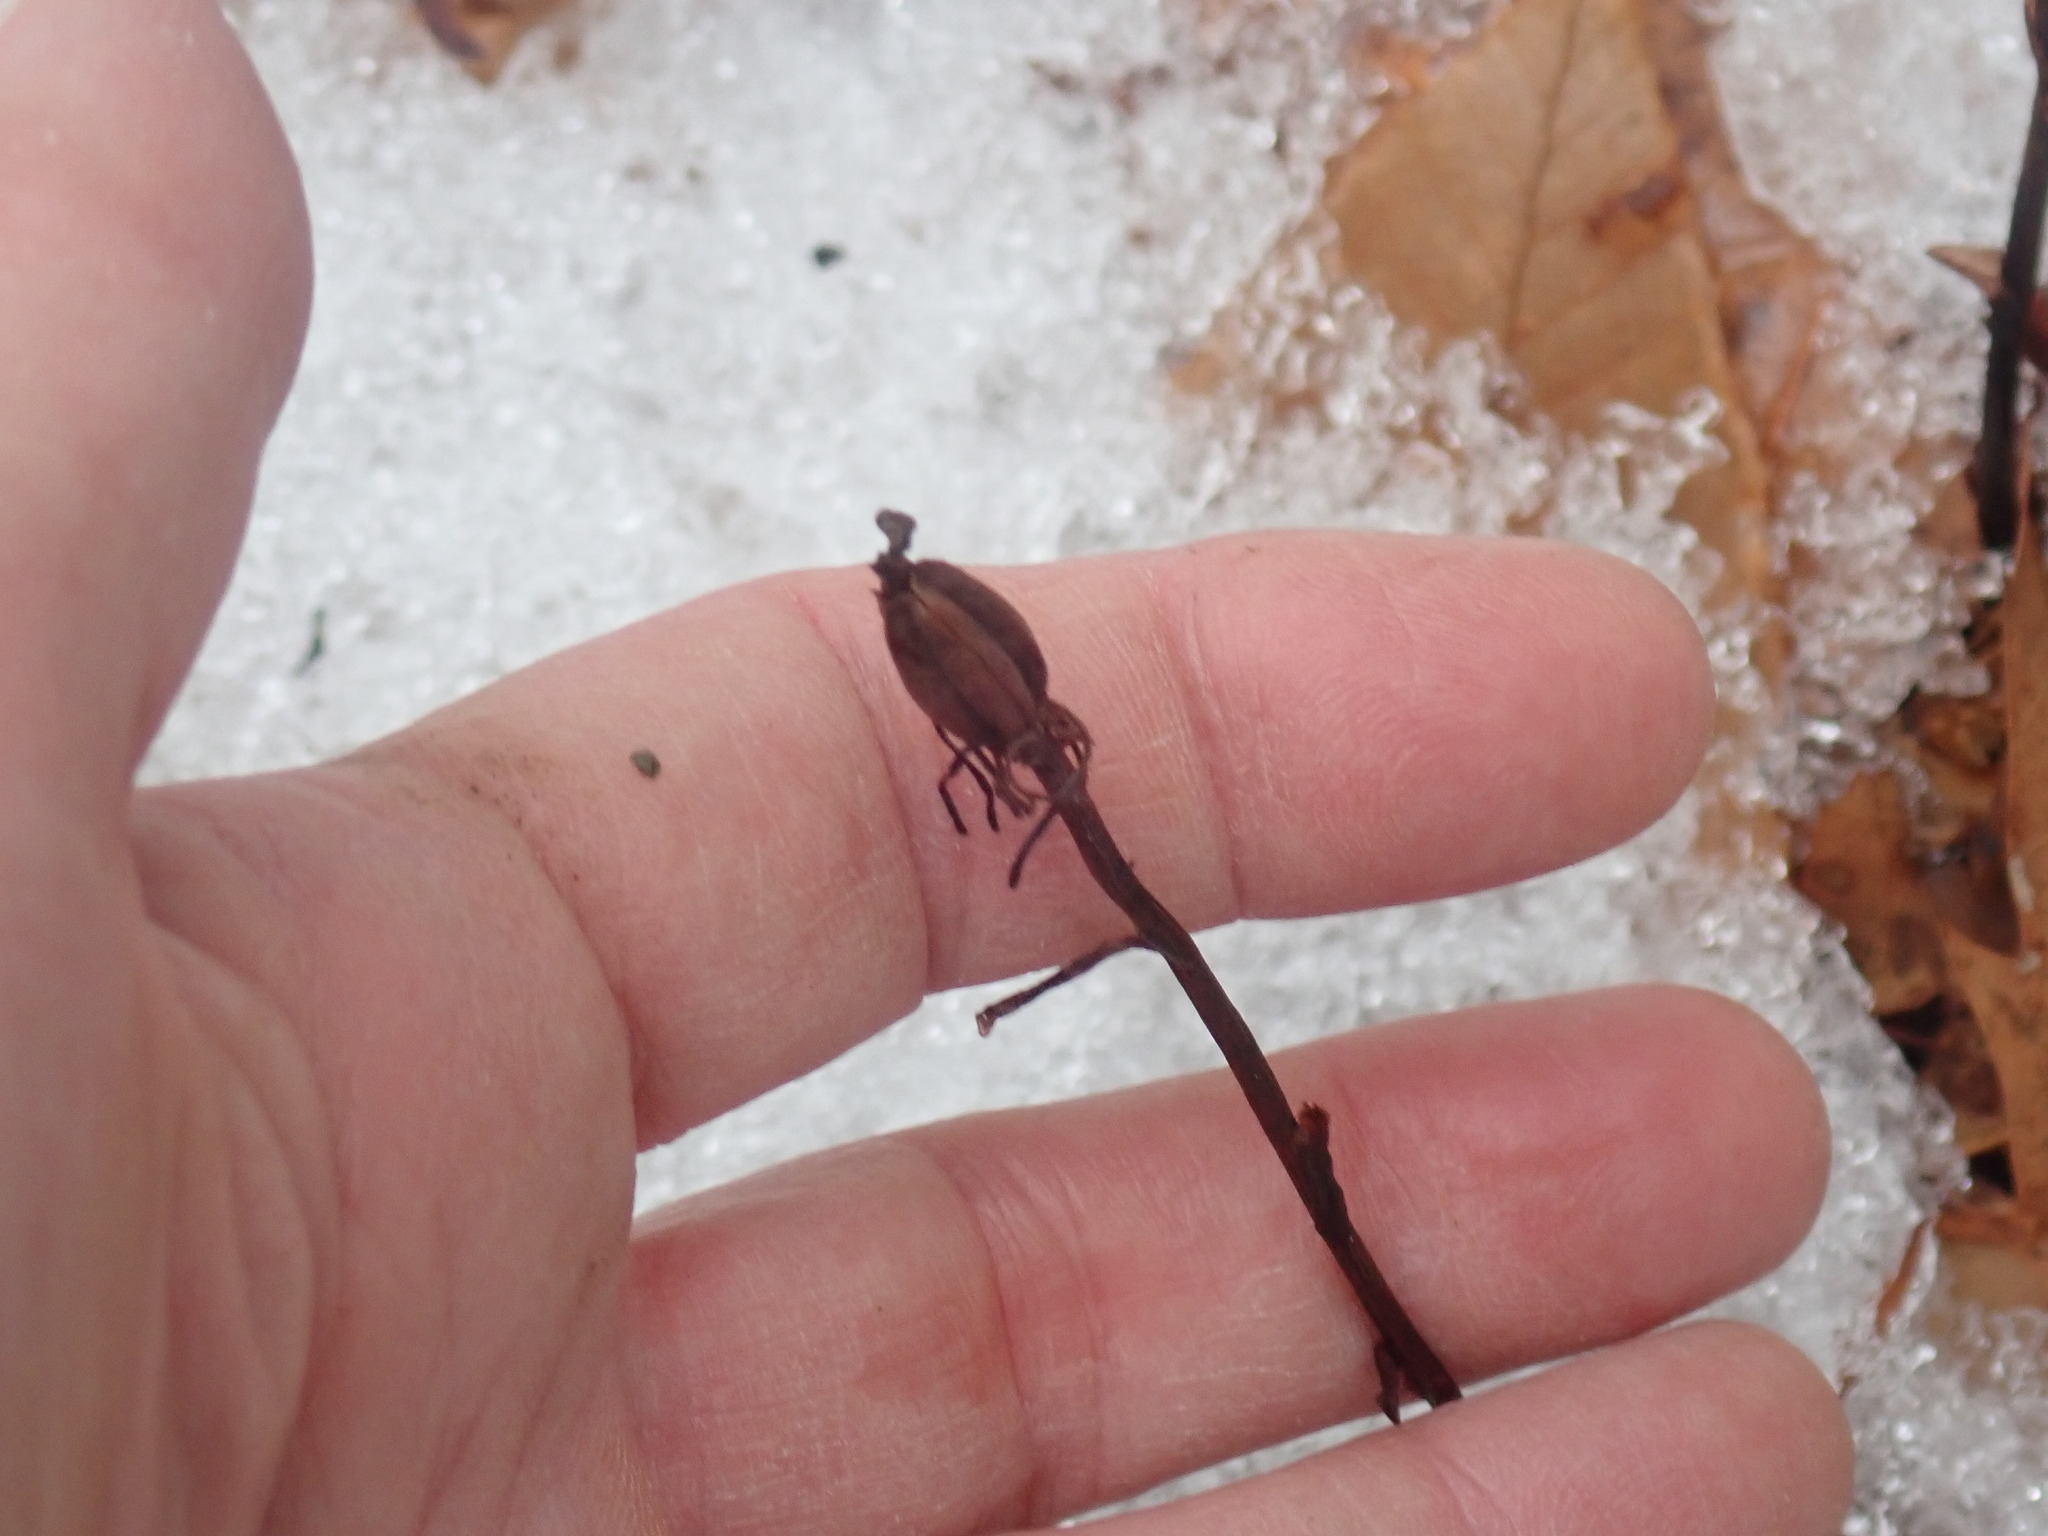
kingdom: Plantae
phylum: Tracheophyta
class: Magnoliopsida
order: Ericales
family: Ericaceae
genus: Monotropa
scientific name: Monotropa uniflora
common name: Convulsion root
